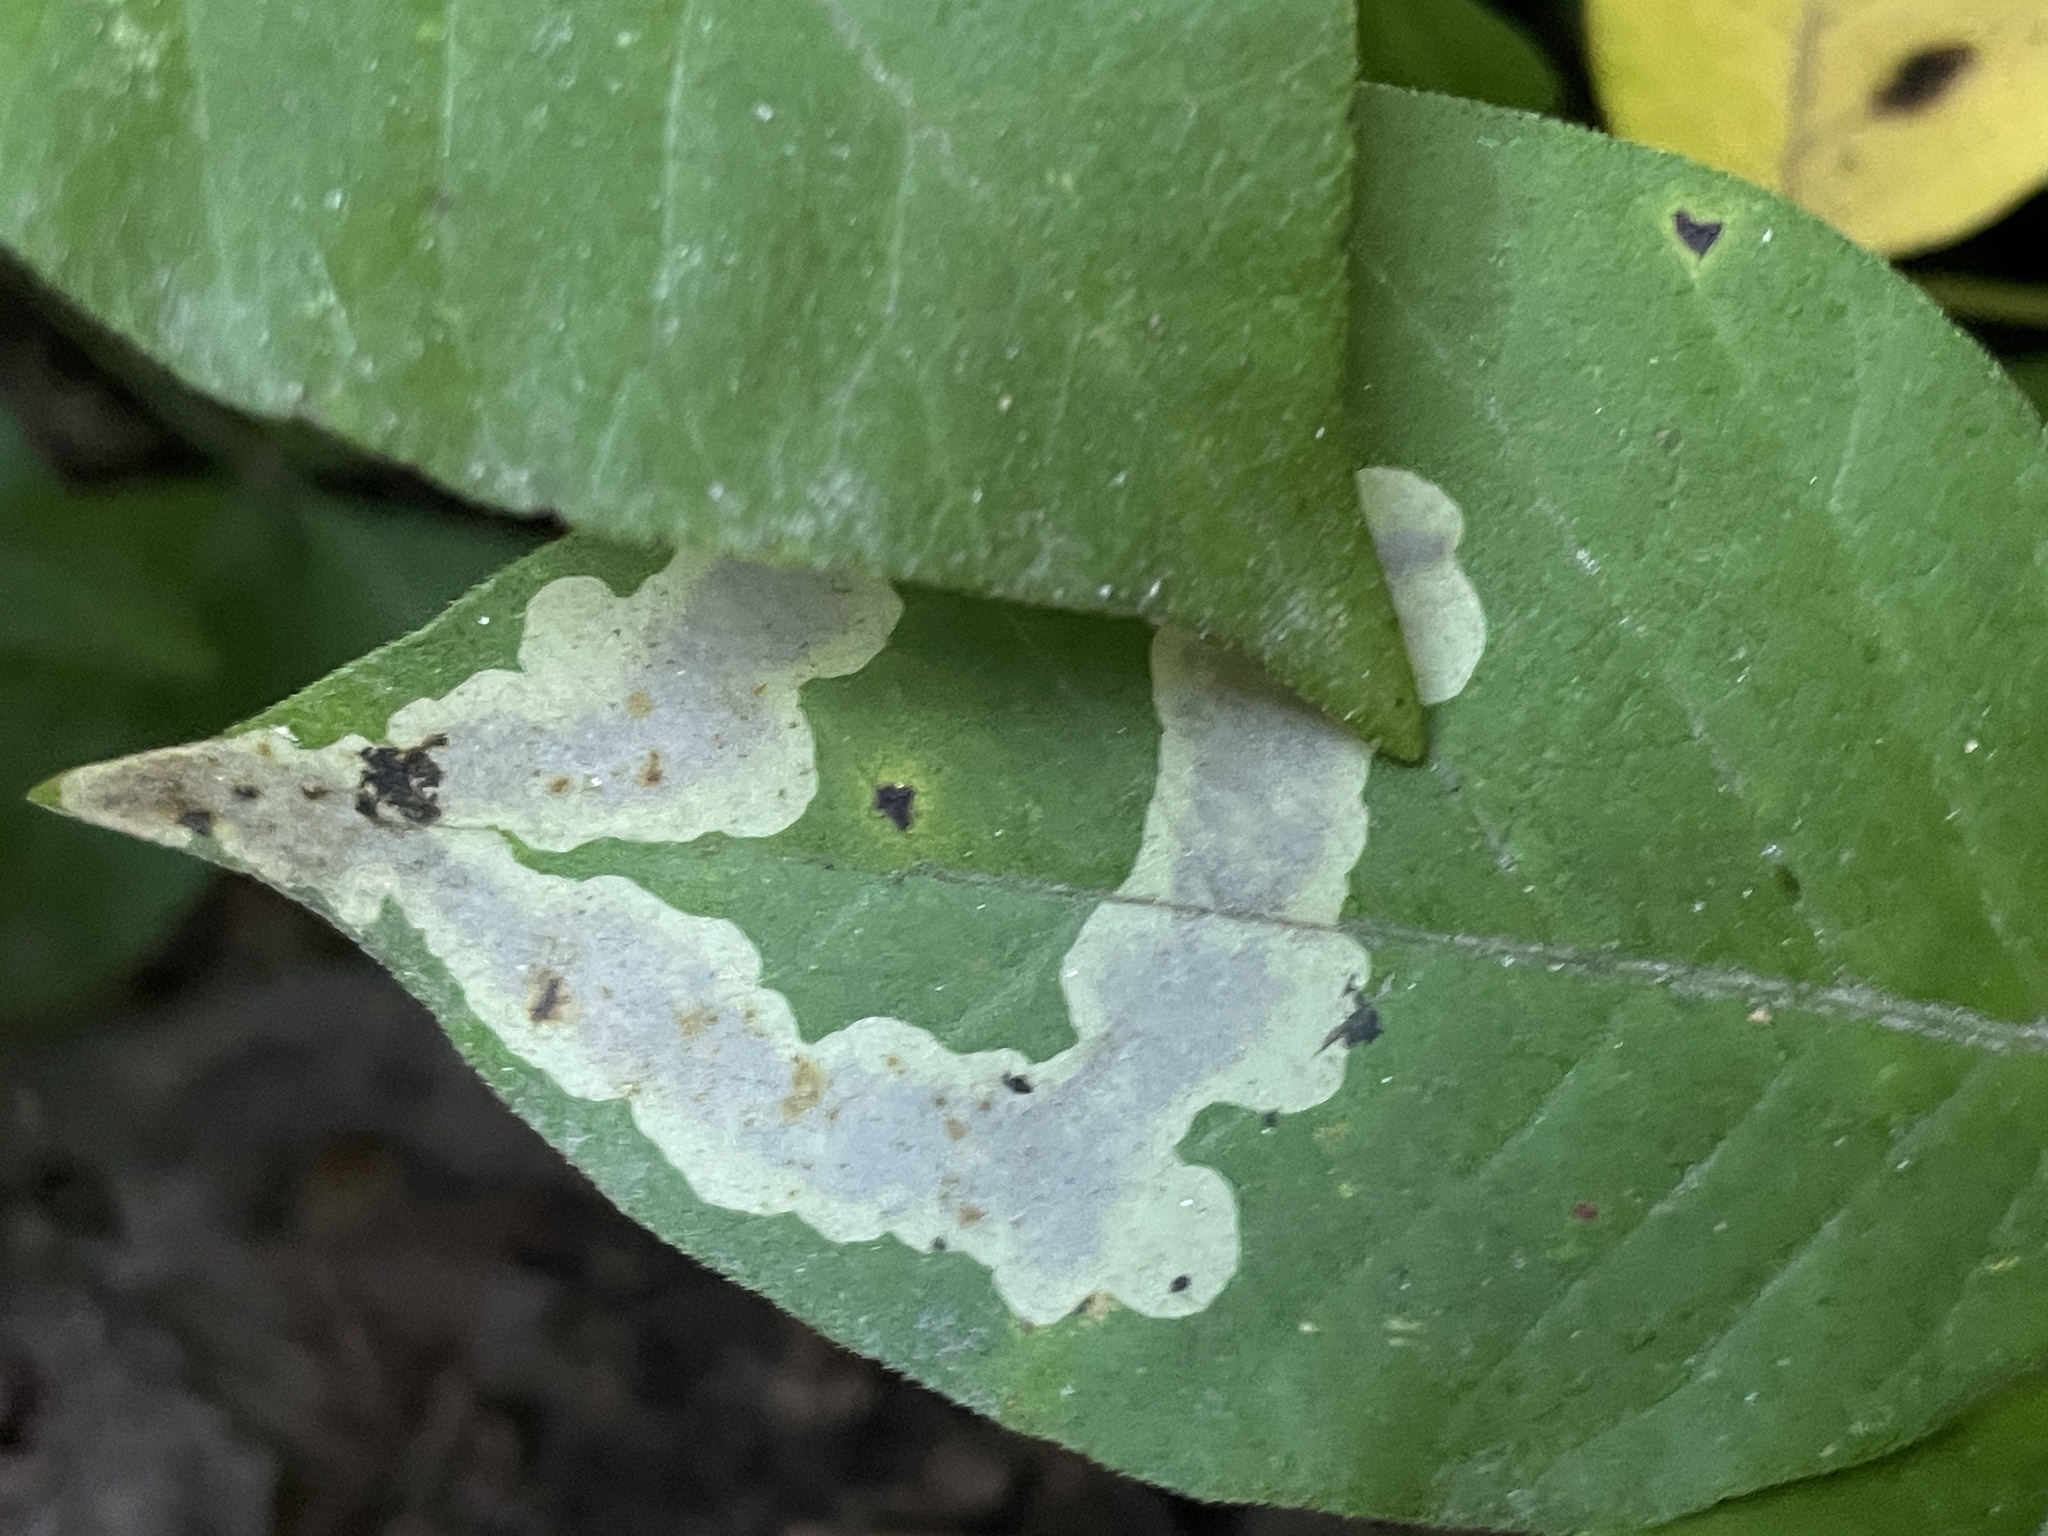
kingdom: Animalia
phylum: Arthropoda
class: Insecta
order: Lepidoptera
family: Gracillariidae
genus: Cameraria
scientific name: Cameraria guttifinitella
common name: Poison ivy leaf-miner moth
